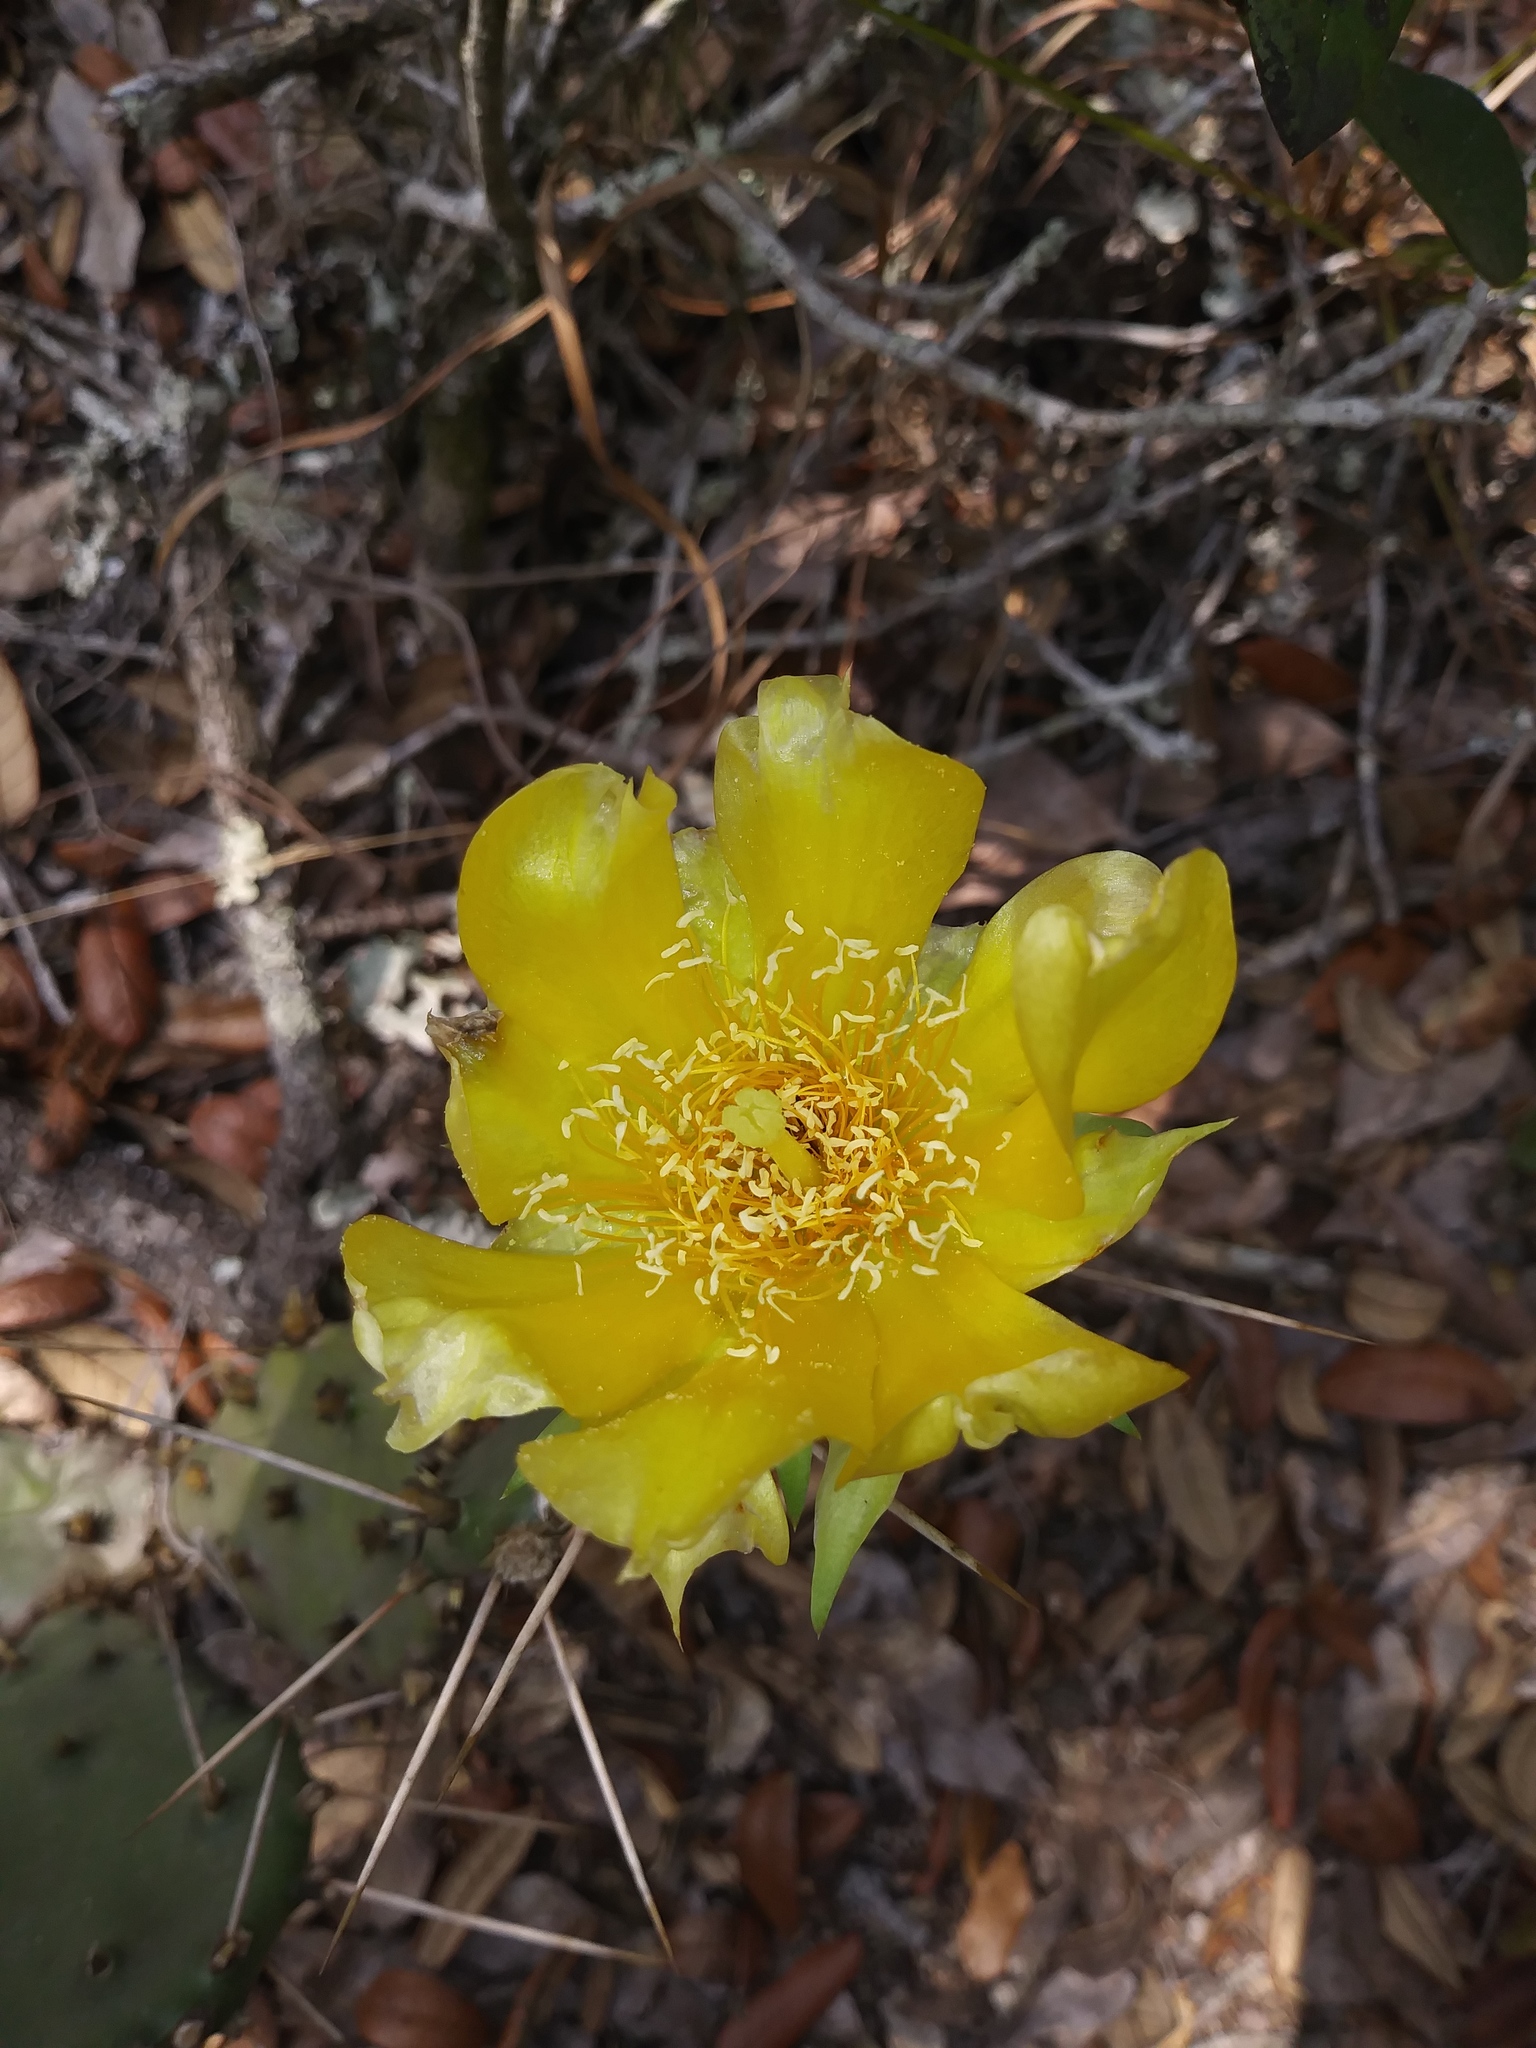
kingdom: Plantae
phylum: Tracheophyta
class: Magnoliopsida
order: Caryophyllales
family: Cactaceae
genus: Opuntia
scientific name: Opuntia austrina
